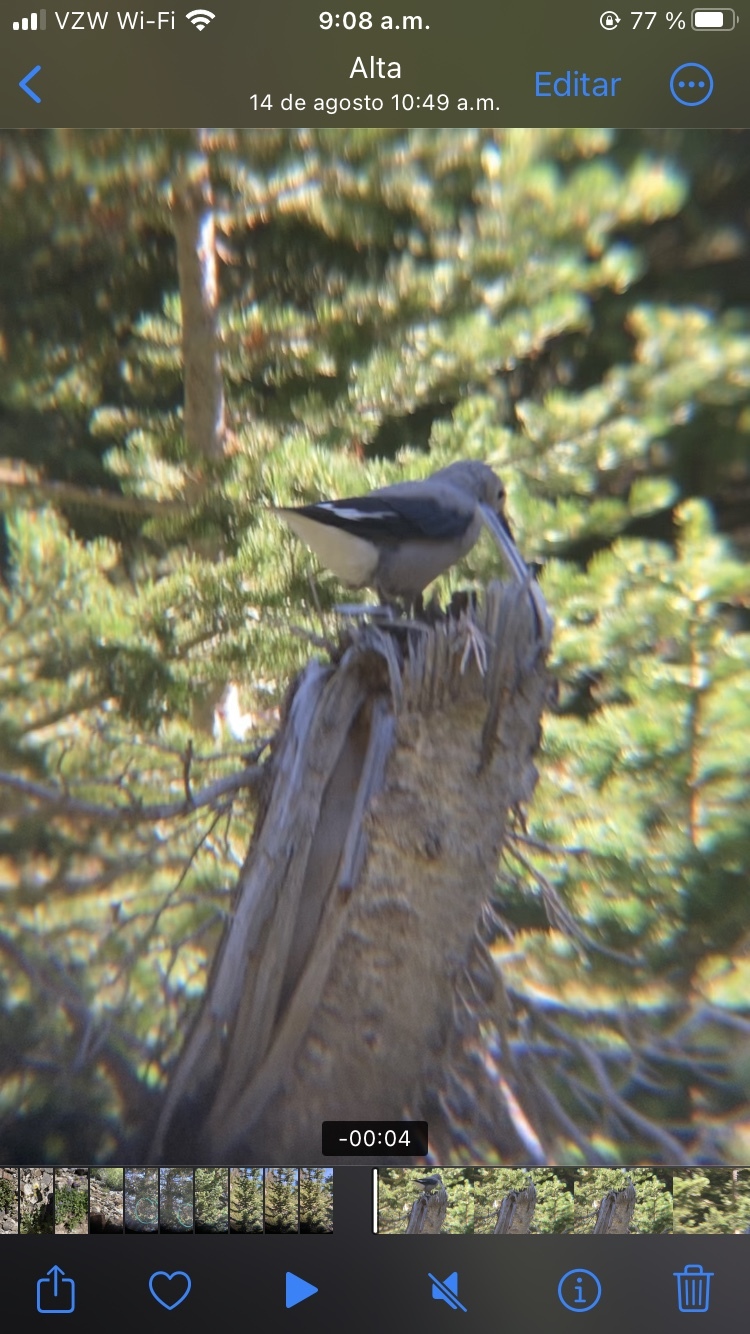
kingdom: Animalia
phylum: Chordata
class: Aves
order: Passeriformes
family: Corvidae
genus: Nucifraga
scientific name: Nucifraga columbiana
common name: Clark's nutcracker
